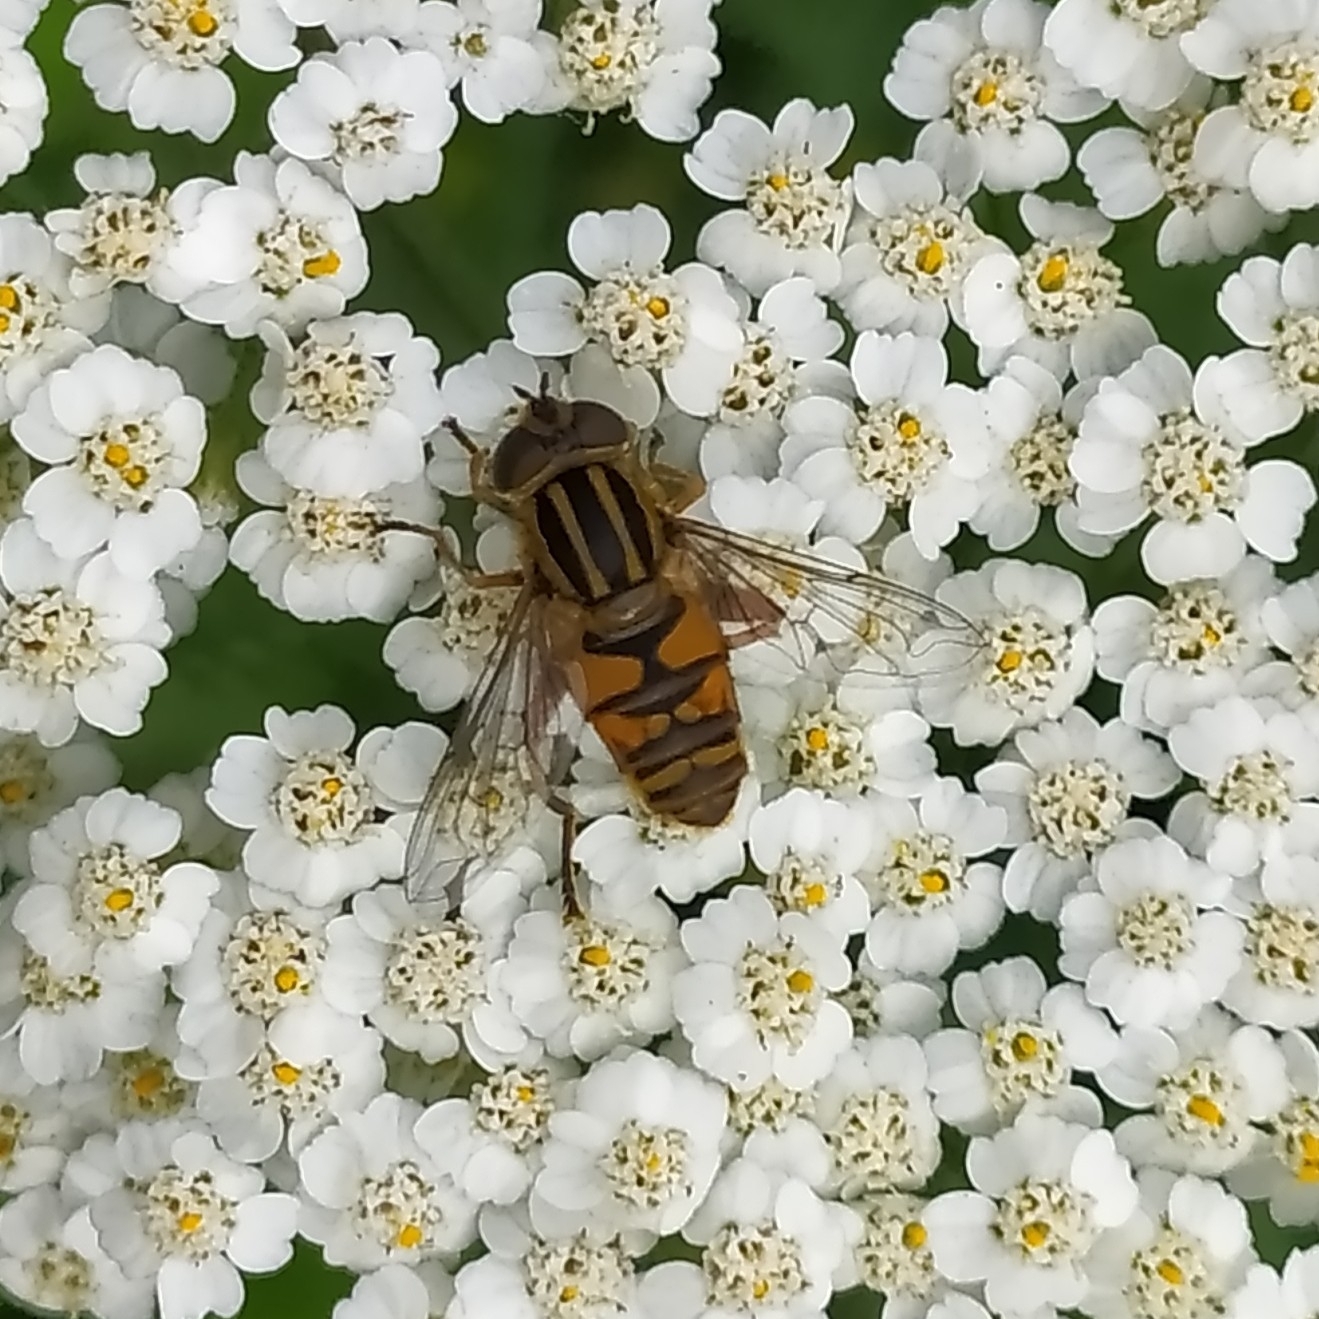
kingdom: Animalia
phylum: Arthropoda
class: Insecta
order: Diptera
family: Syrphidae
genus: Helophilus
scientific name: Helophilus pendulus
